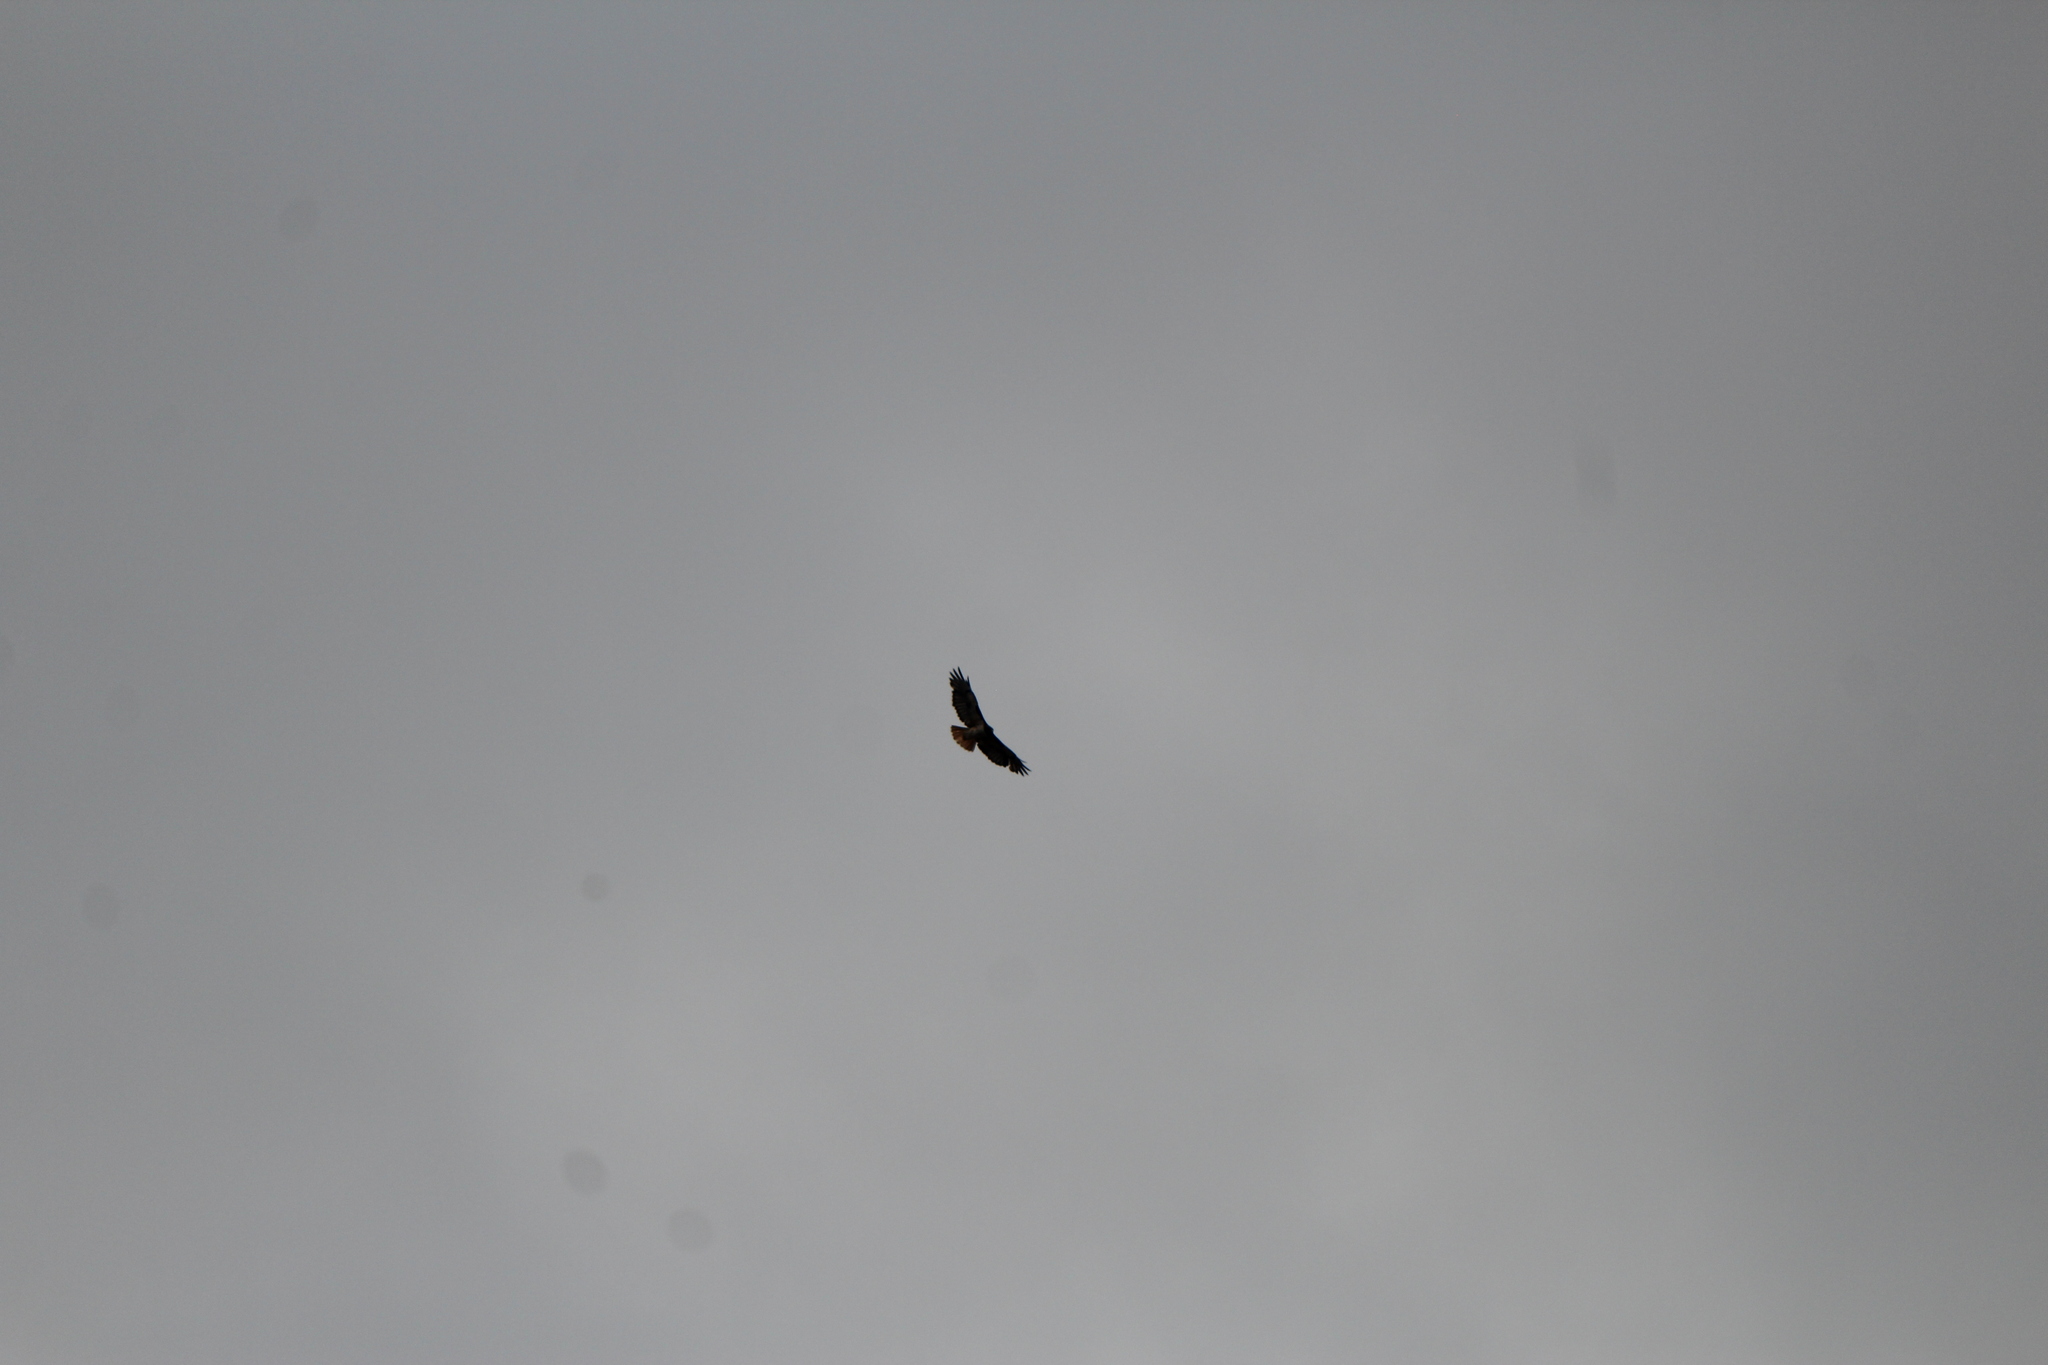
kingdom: Animalia
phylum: Chordata
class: Aves
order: Accipitriformes
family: Accipitridae
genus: Buteo
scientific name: Buteo jamaicensis
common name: Red-tailed hawk
